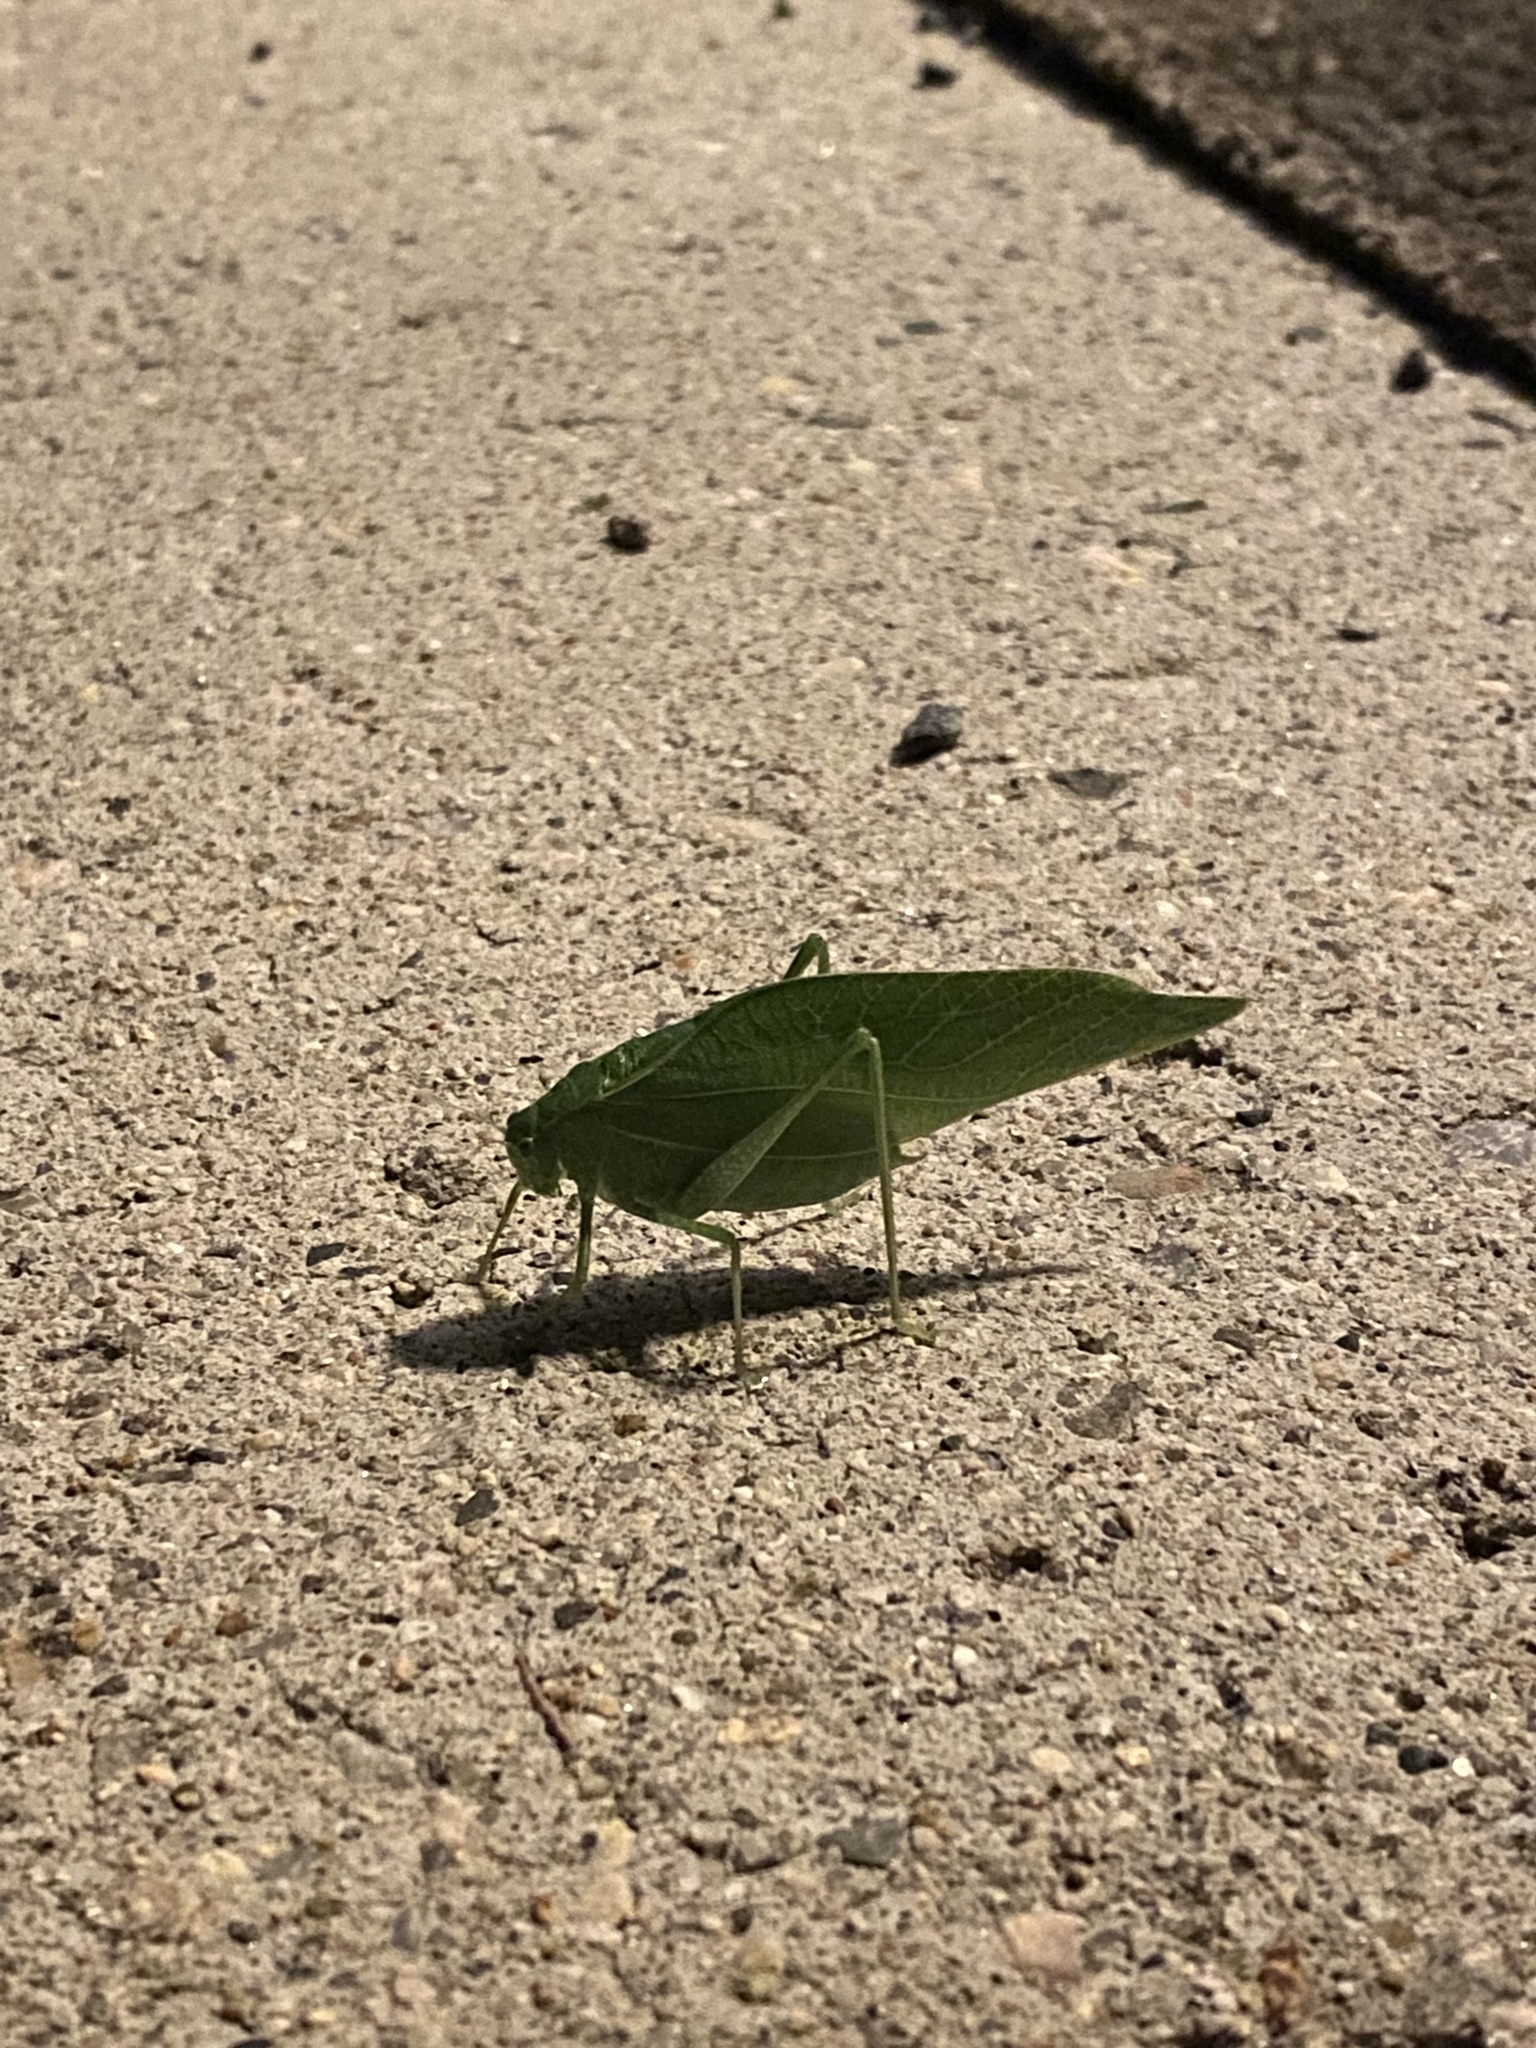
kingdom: Animalia
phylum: Arthropoda
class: Insecta
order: Orthoptera
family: Tettigoniidae
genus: Microcentrum
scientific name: Microcentrum rhombifolium
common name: Broad-winged katydid
